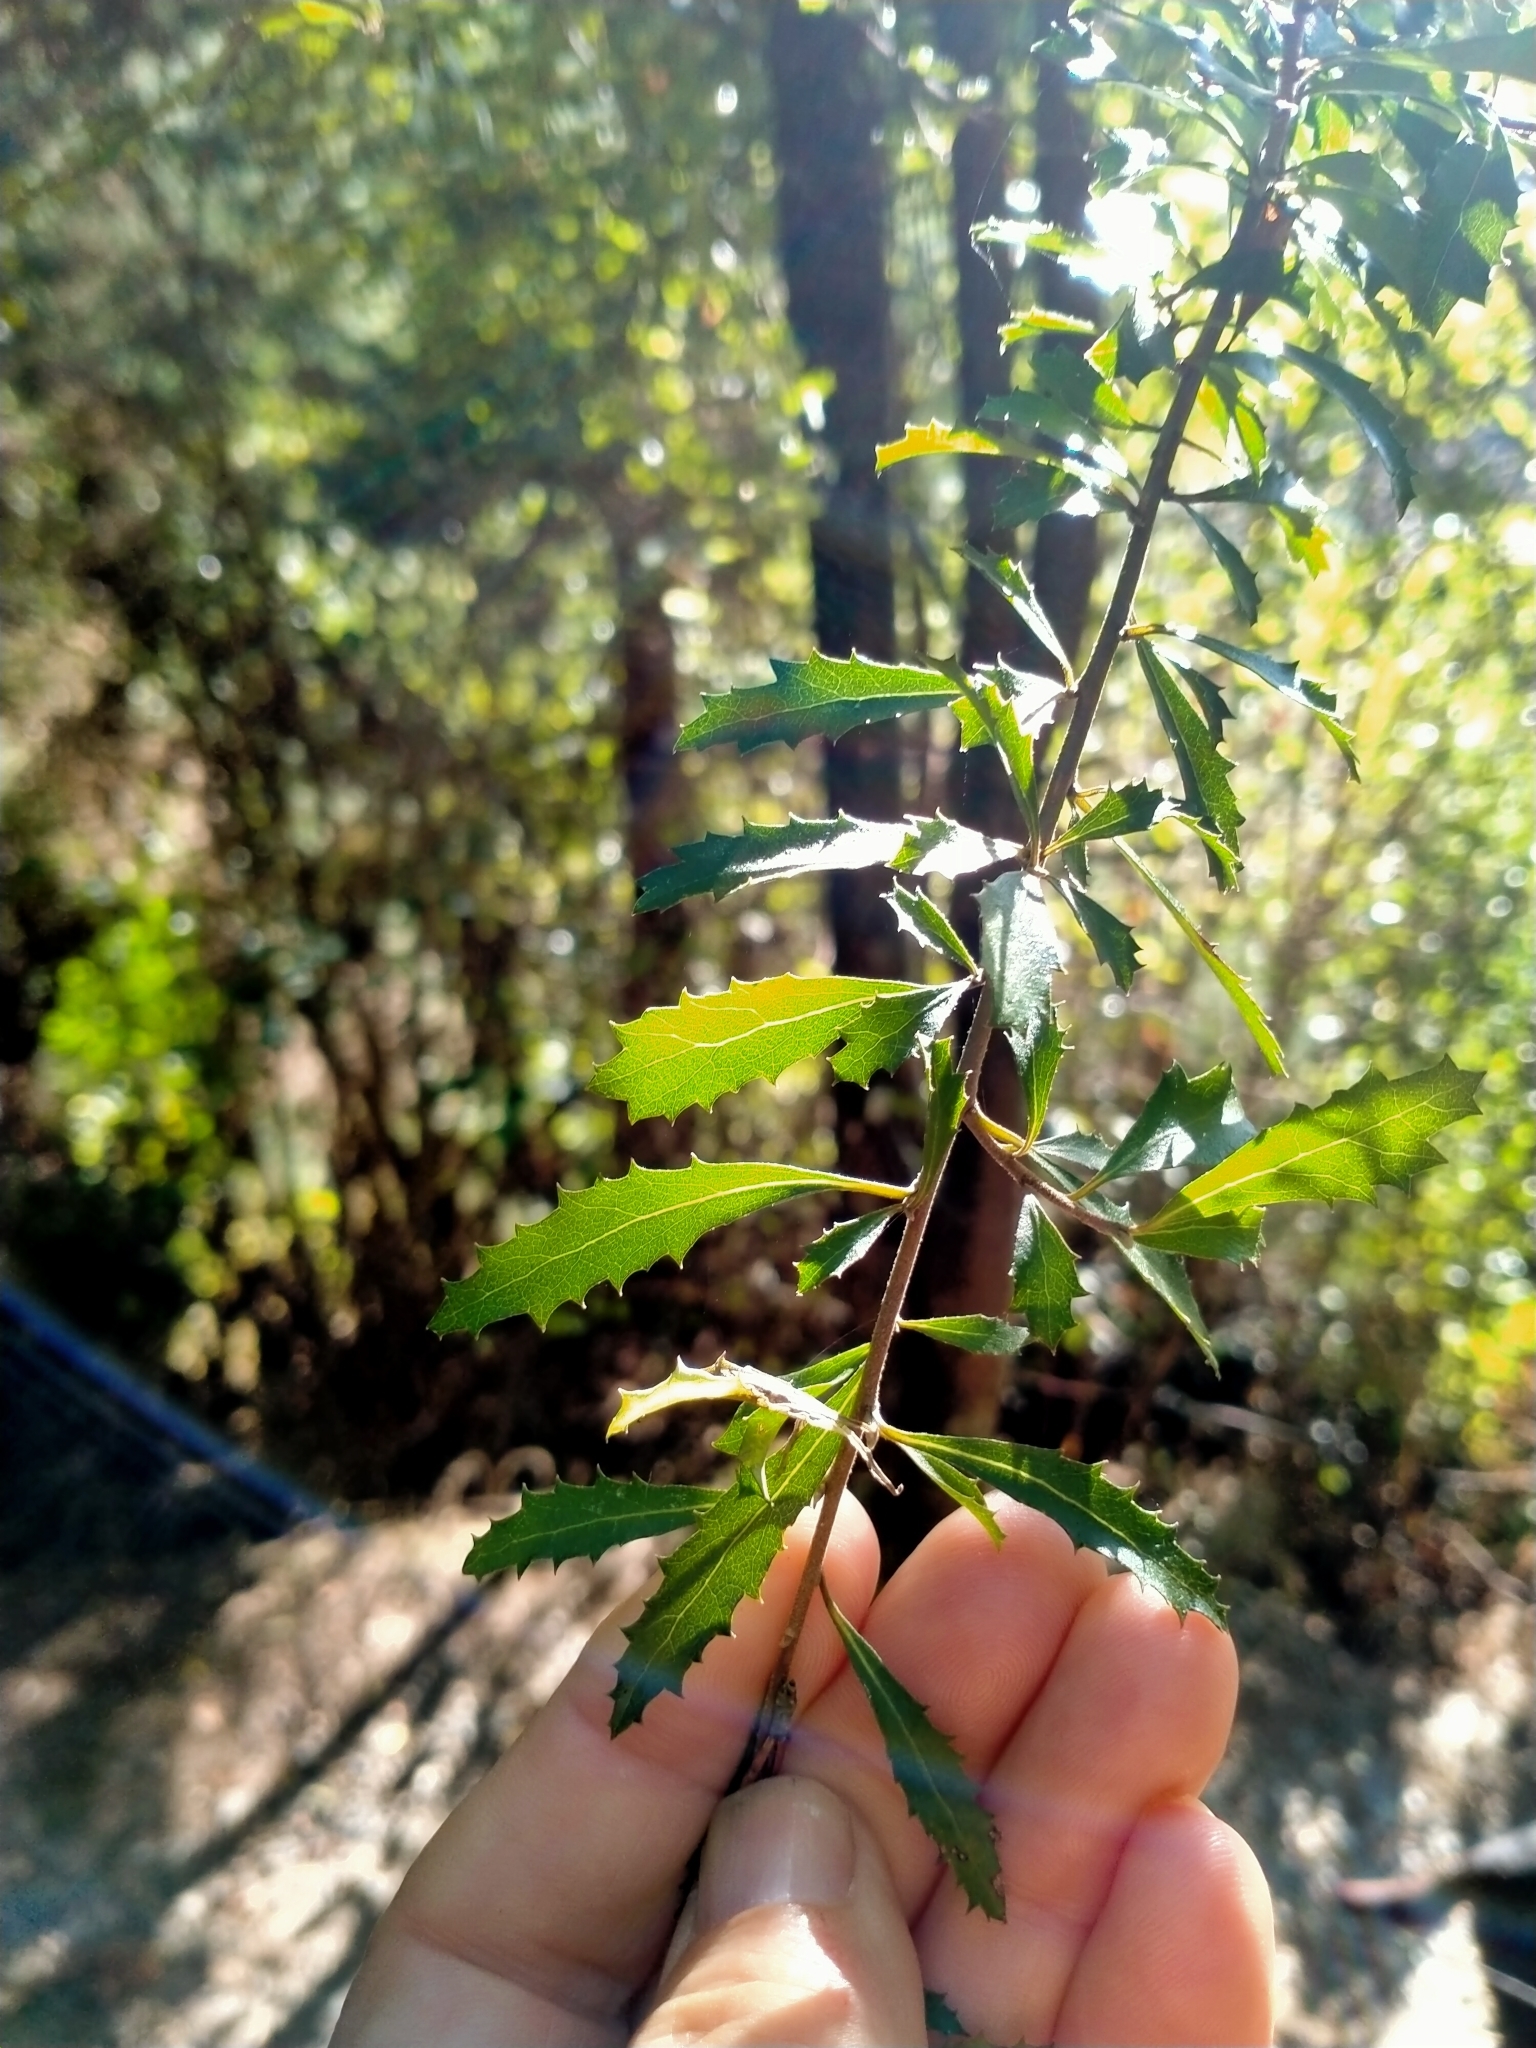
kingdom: Plantae
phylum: Tracheophyta
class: Magnoliopsida
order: Malvales
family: Malvaceae
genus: Hoheria
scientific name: Hoheria angustifolia
